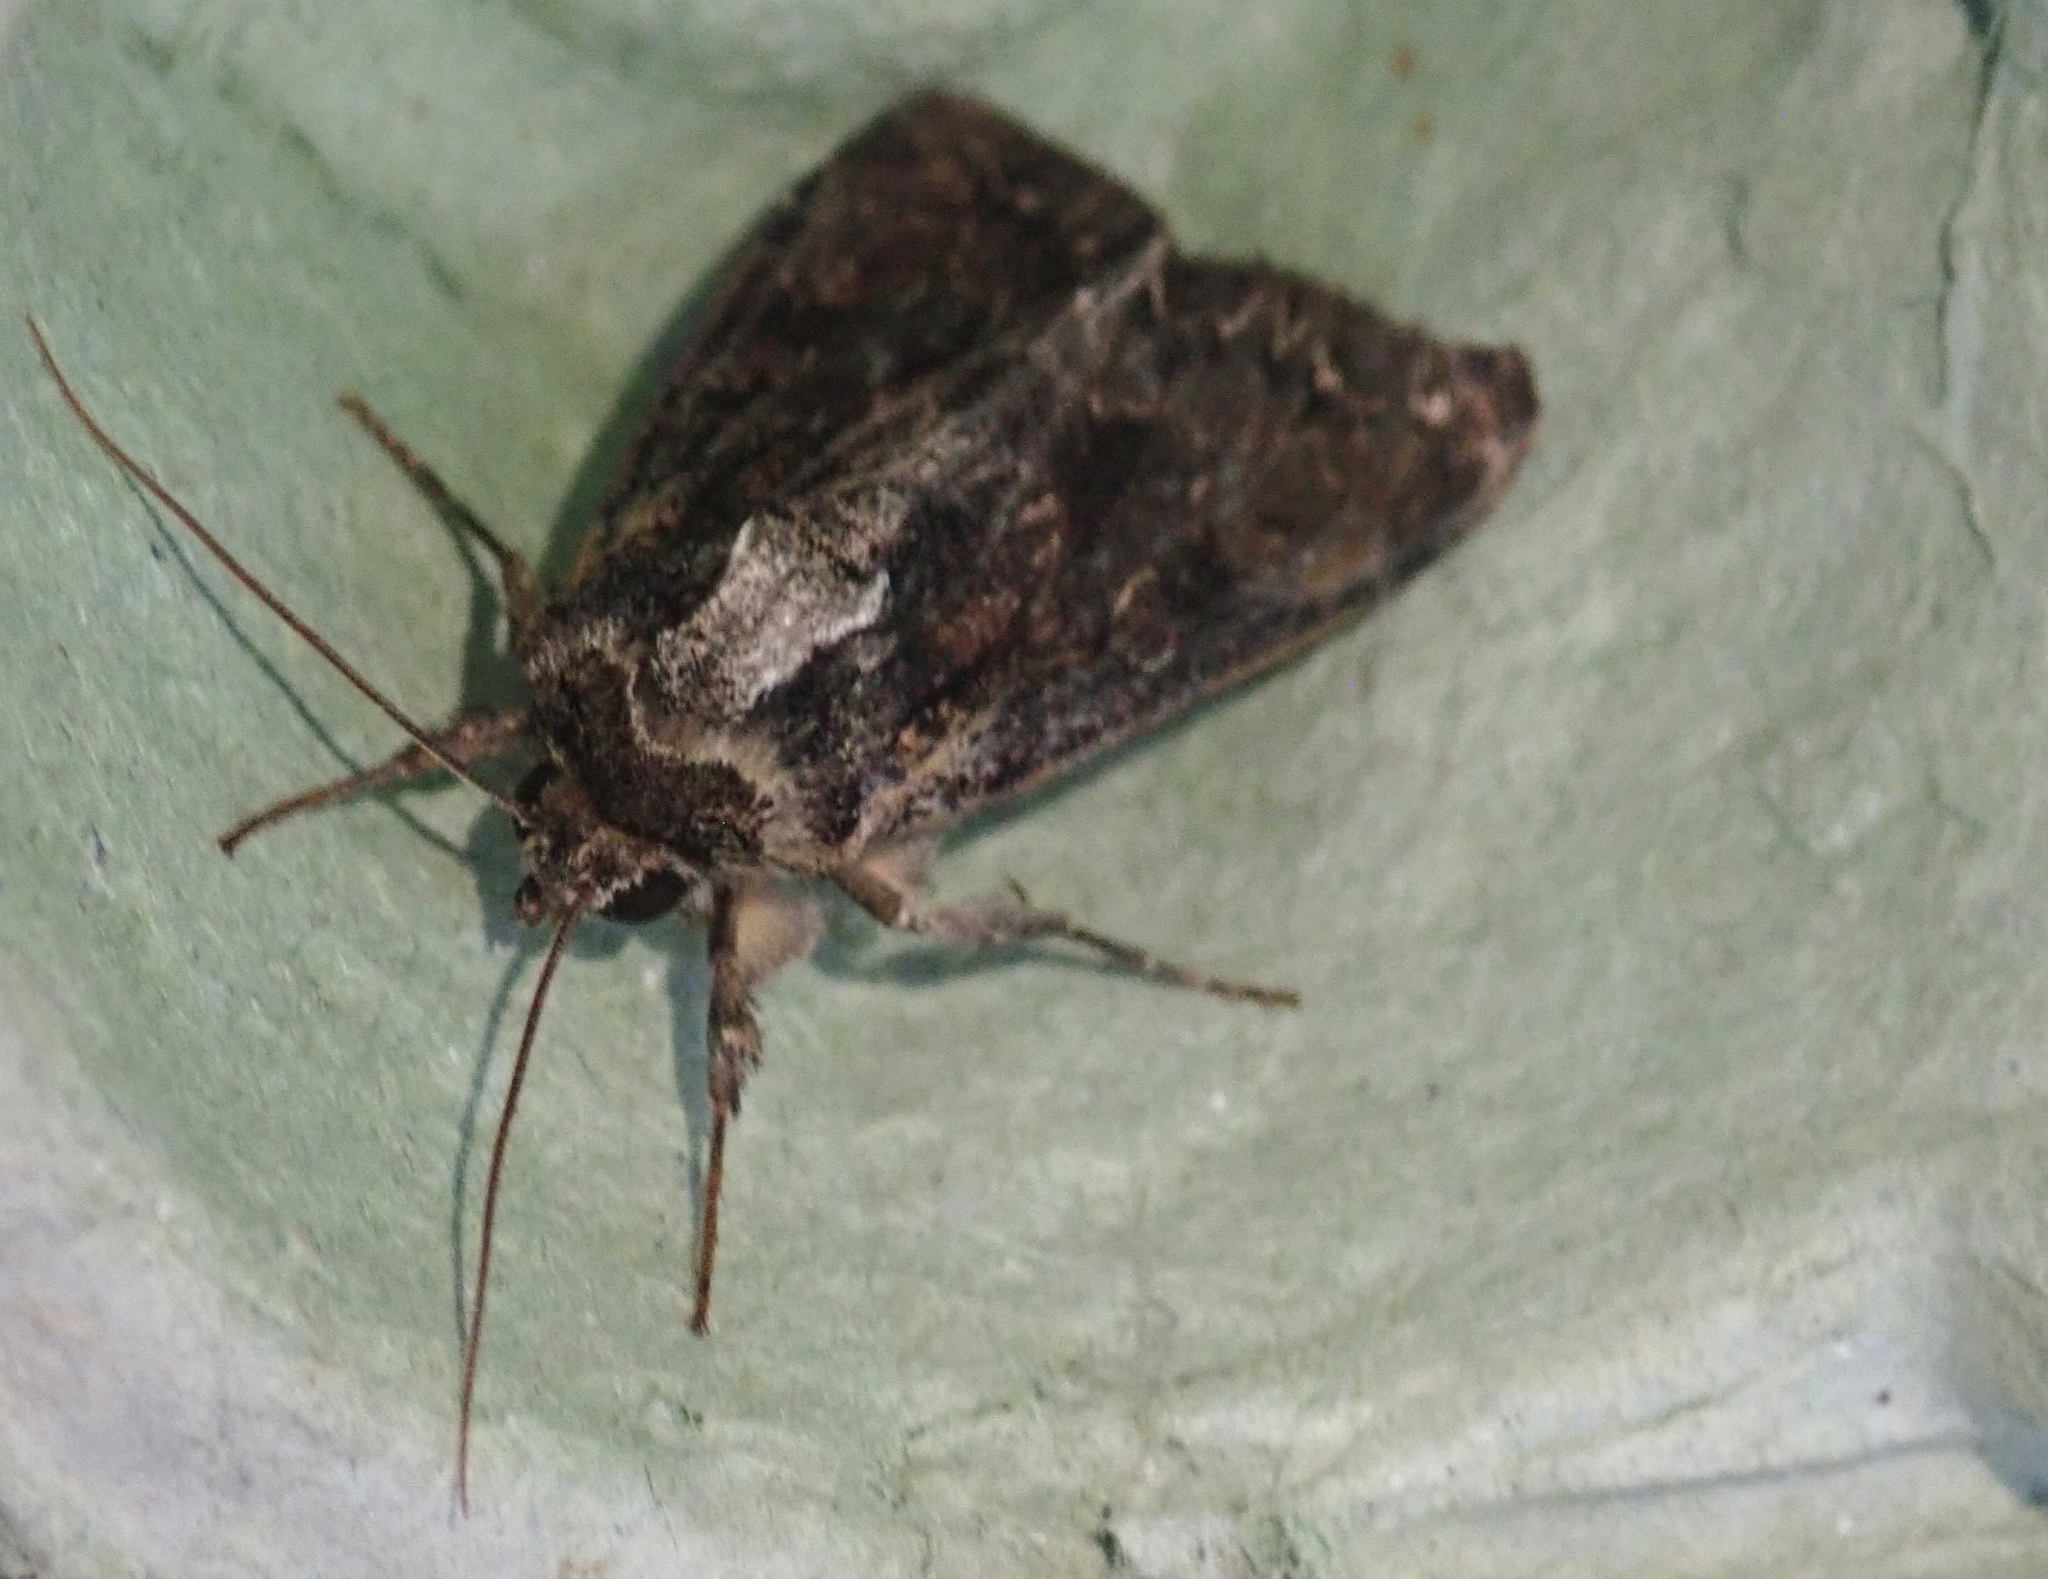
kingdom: Animalia
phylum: Arthropoda
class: Insecta
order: Lepidoptera
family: Noctuidae
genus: Apamea
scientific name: Apamea monoglypha
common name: Dark arches
